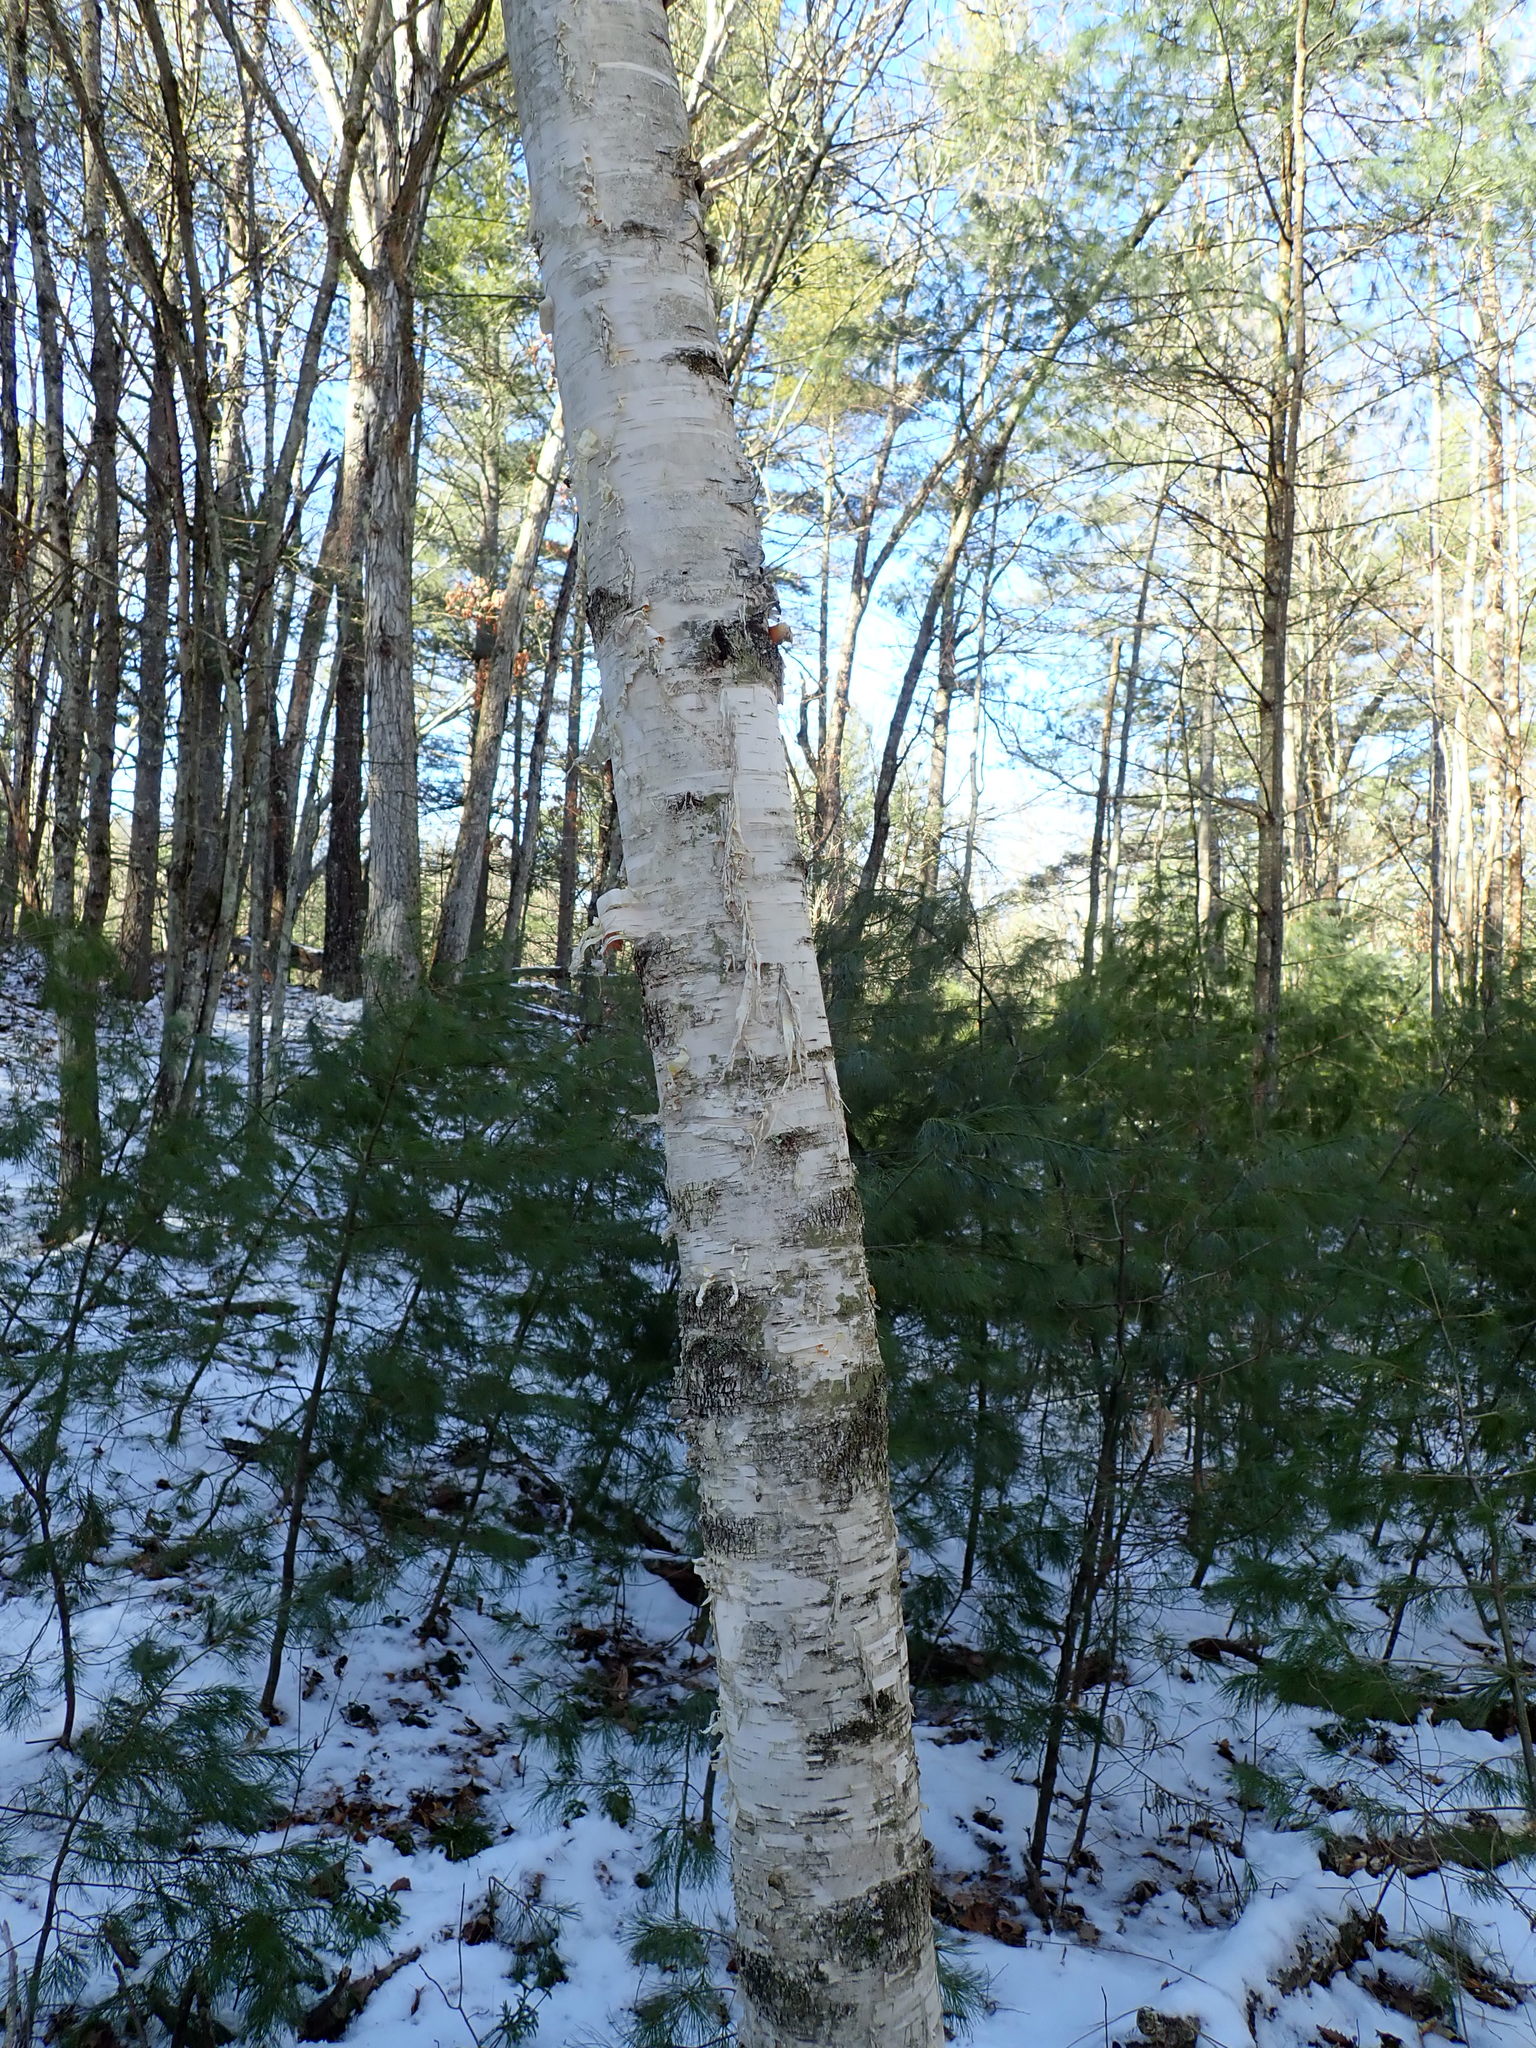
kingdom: Plantae
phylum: Tracheophyta
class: Magnoliopsida
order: Fagales
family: Betulaceae
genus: Betula
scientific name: Betula papyrifera
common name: Paper birch
